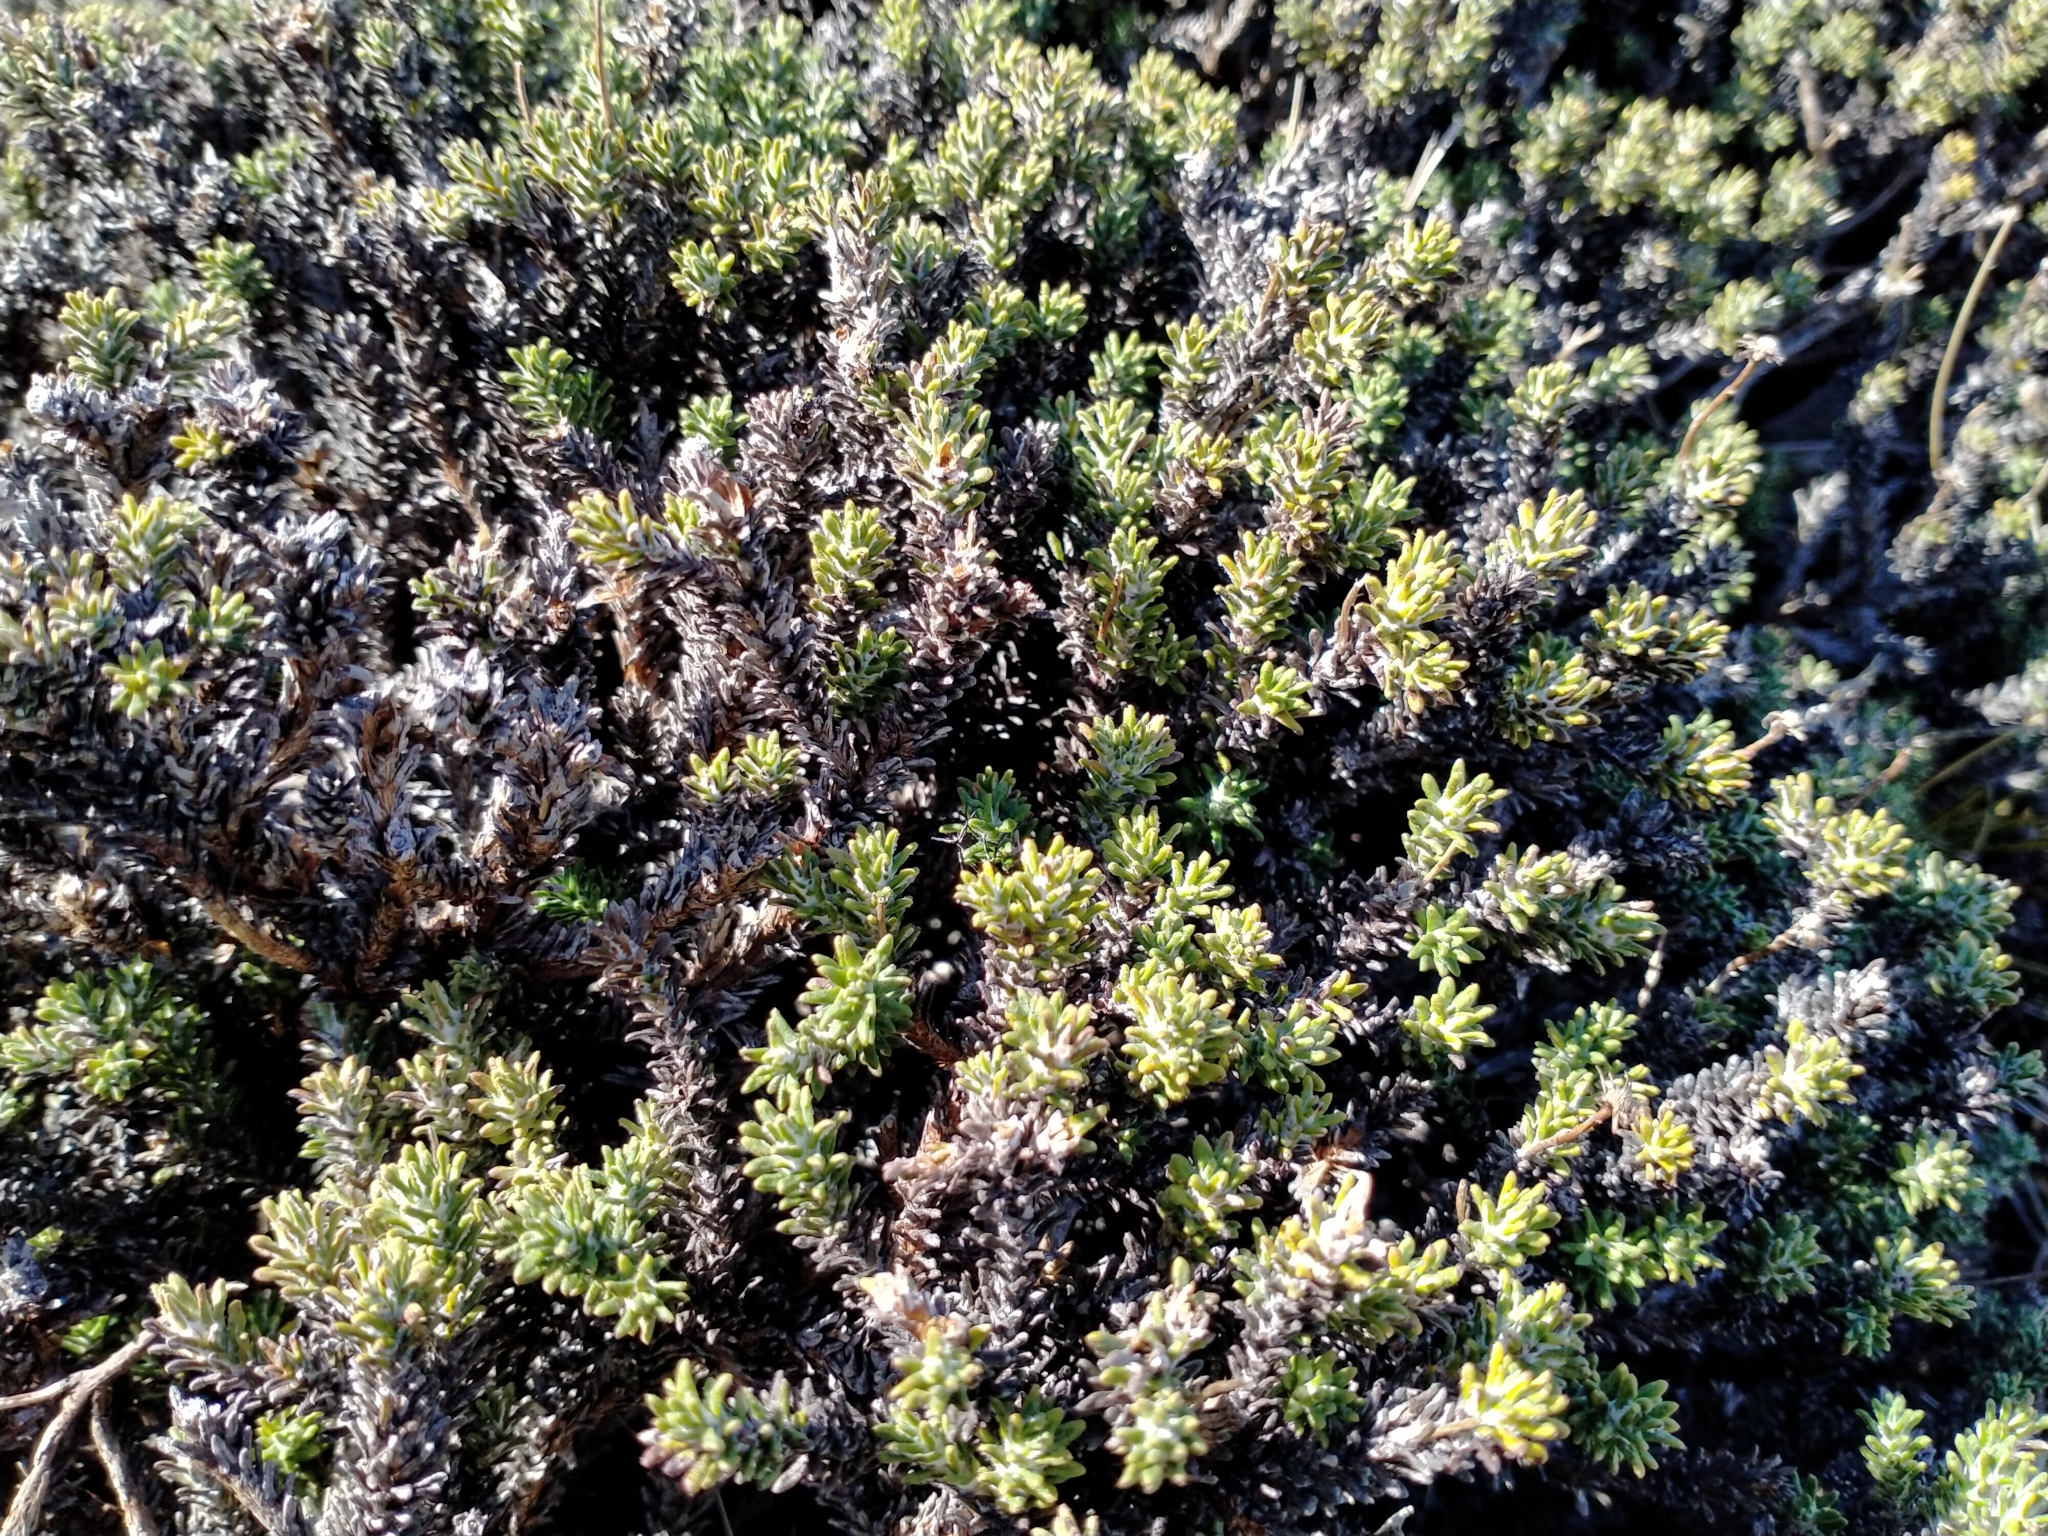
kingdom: Plantae
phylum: Tracheophyta
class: Magnoliopsida
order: Asterales
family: Asteraceae
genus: Celmisia
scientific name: Celmisia ramulosa
